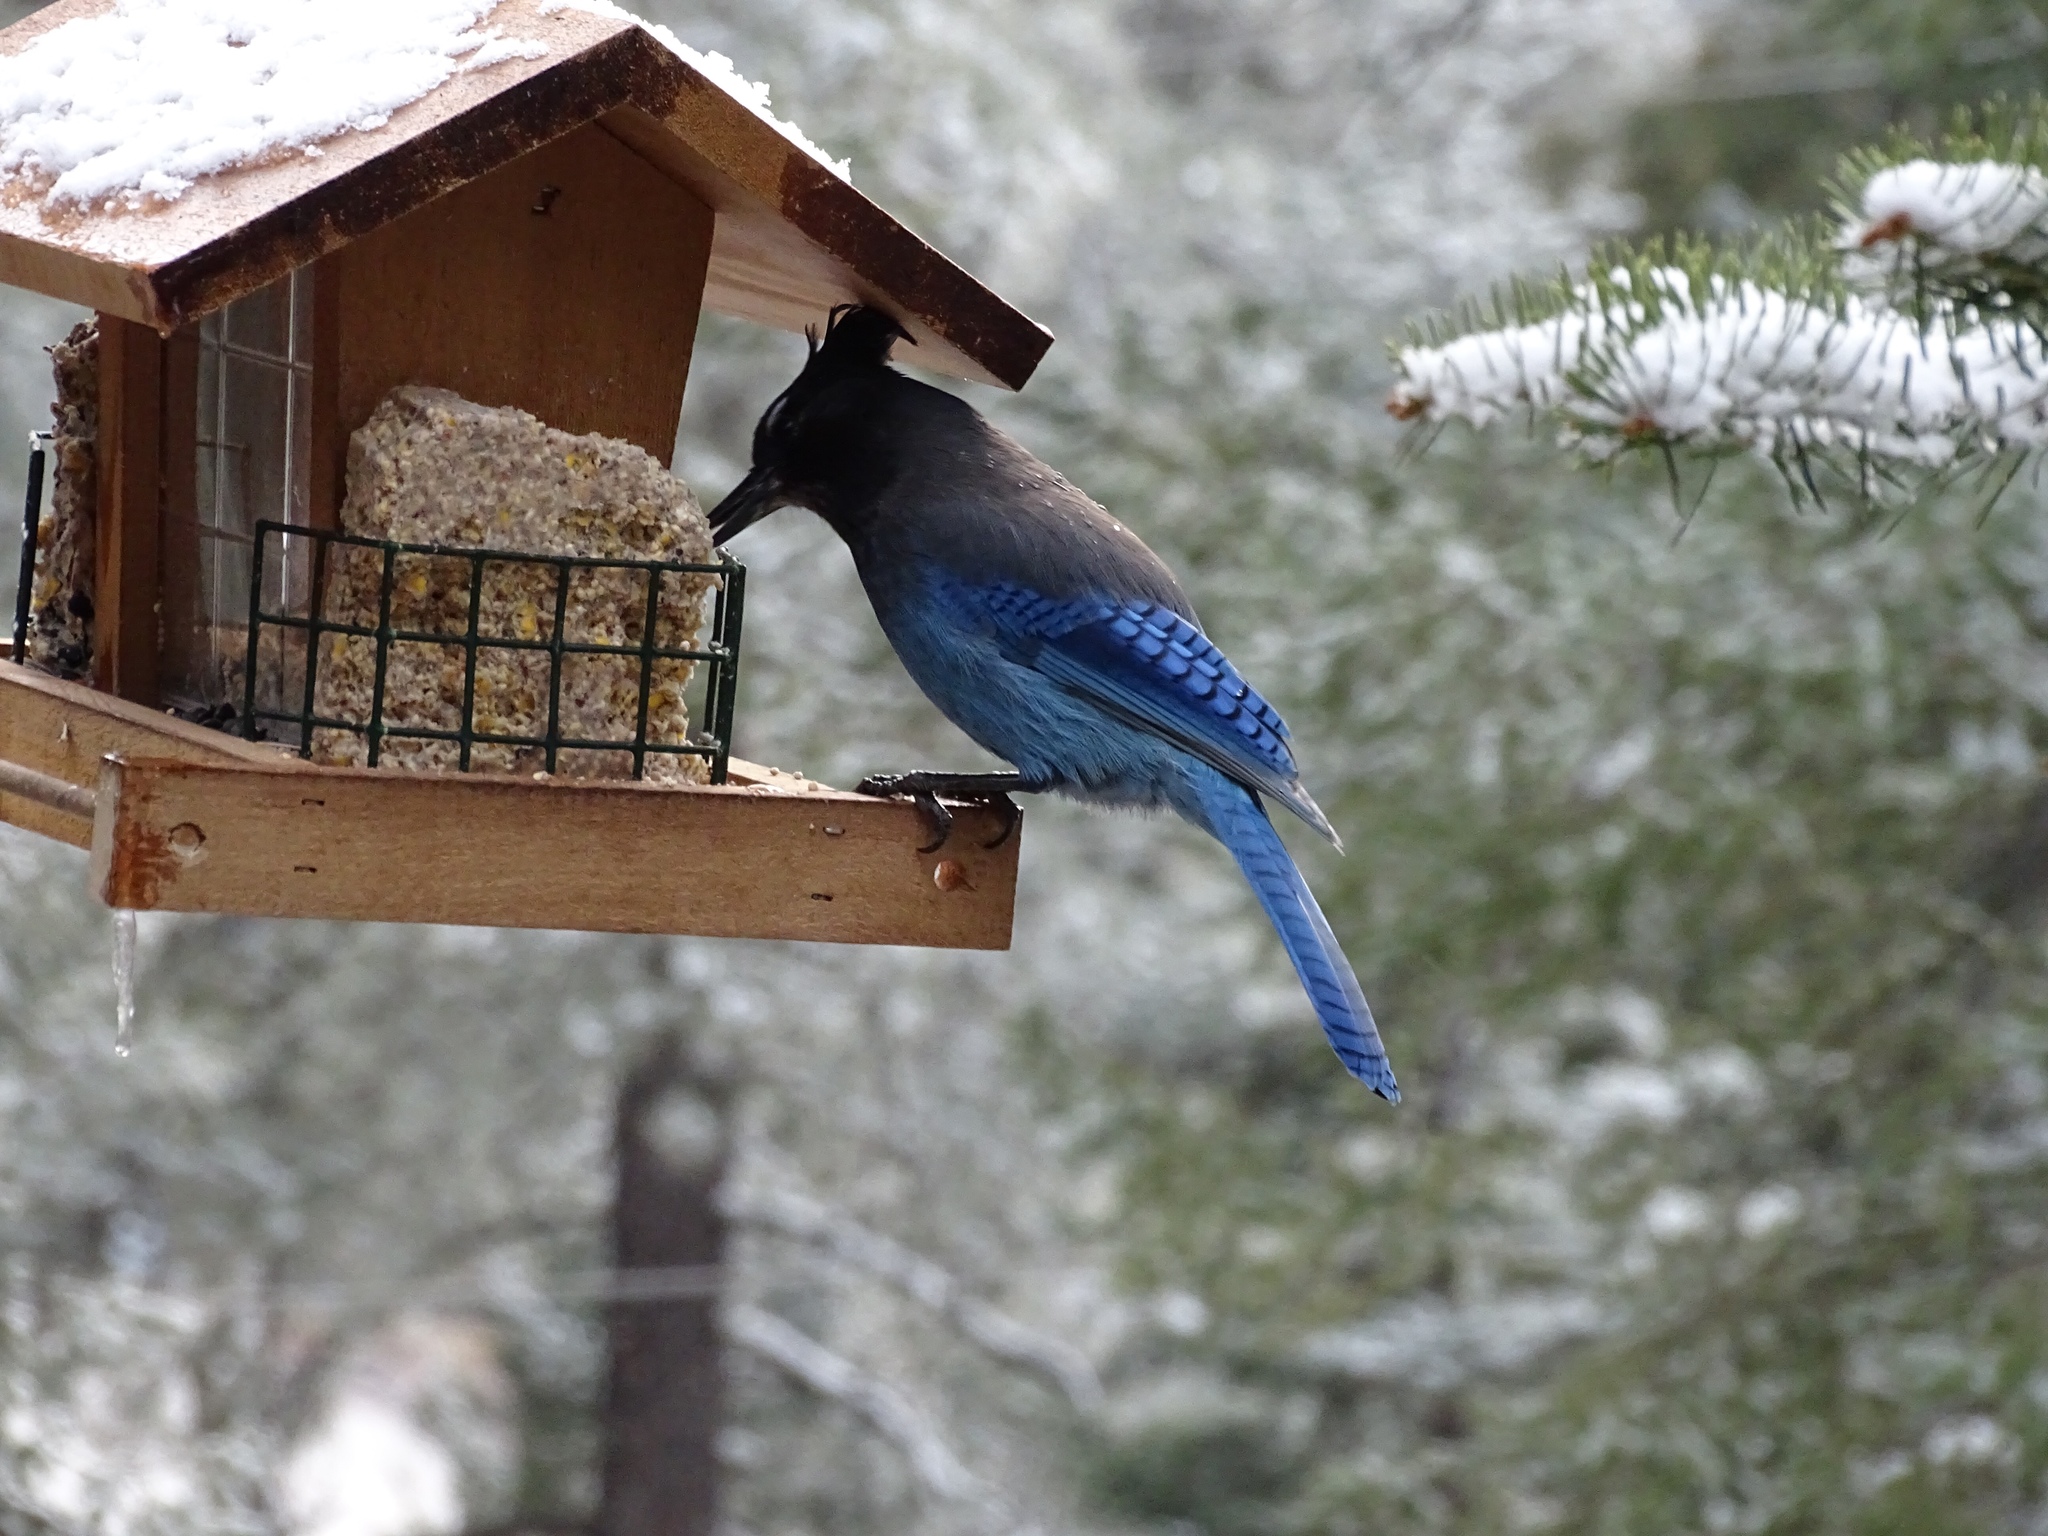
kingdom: Animalia
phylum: Chordata
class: Aves
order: Passeriformes
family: Corvidae
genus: Cyanocitta
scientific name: Cyanocitta stelleri
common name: Steller's jay
